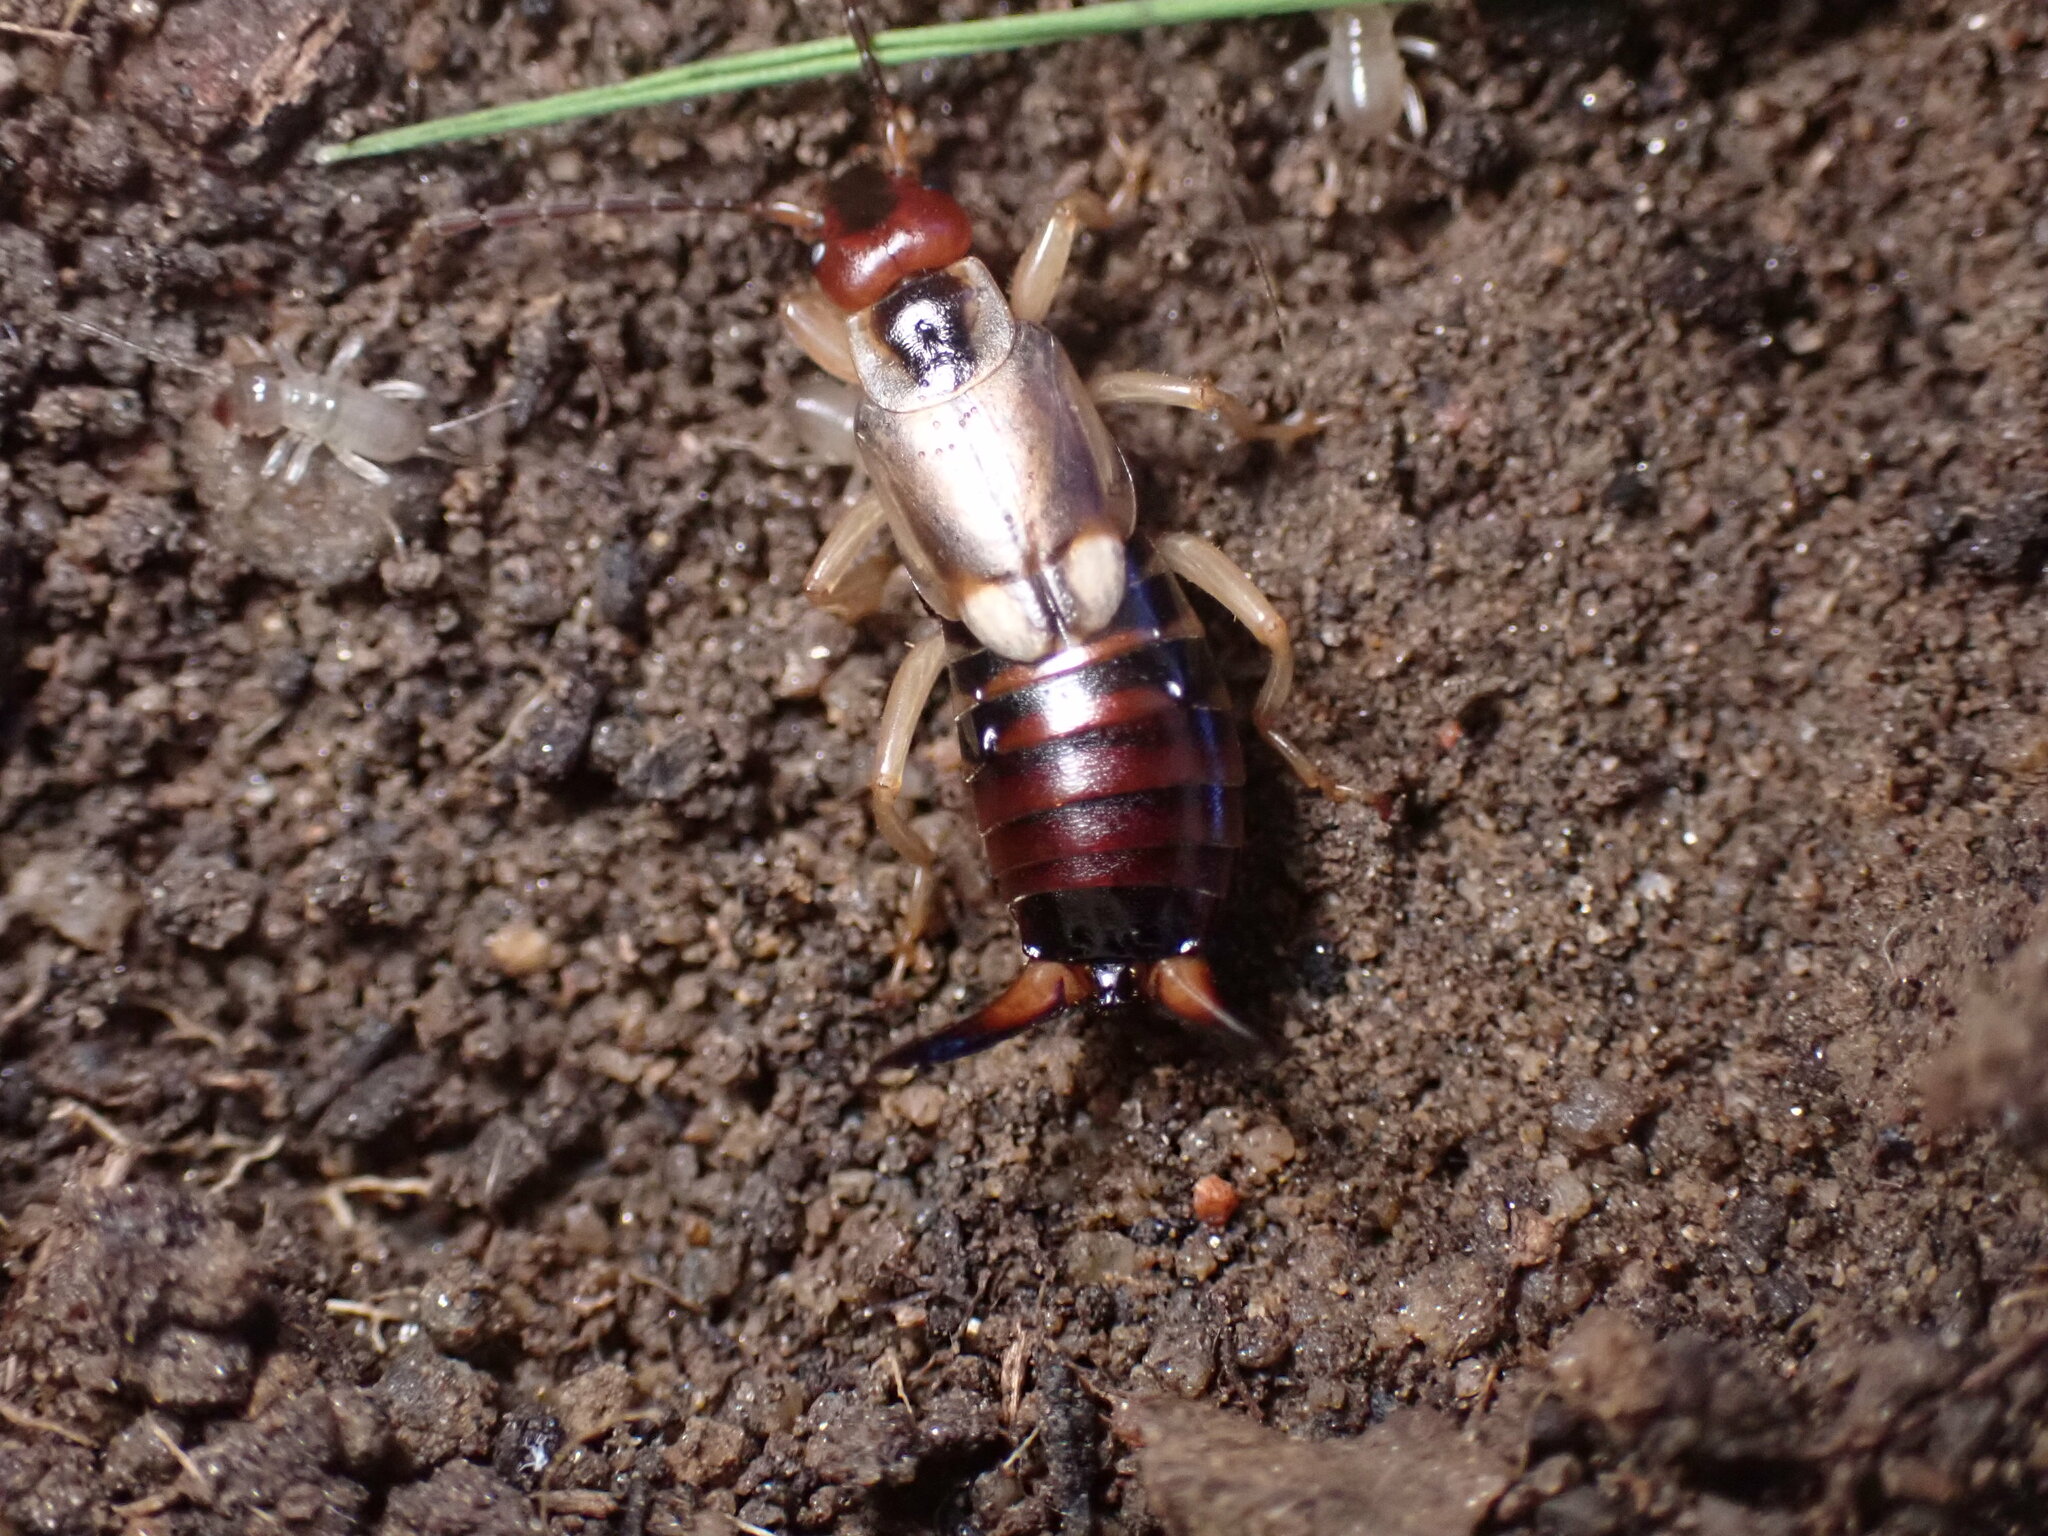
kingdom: Animalia
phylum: Arthropoda
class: Insecta
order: Dermaptera
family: Forficulidae
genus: Forficula
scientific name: Forficula dentata
